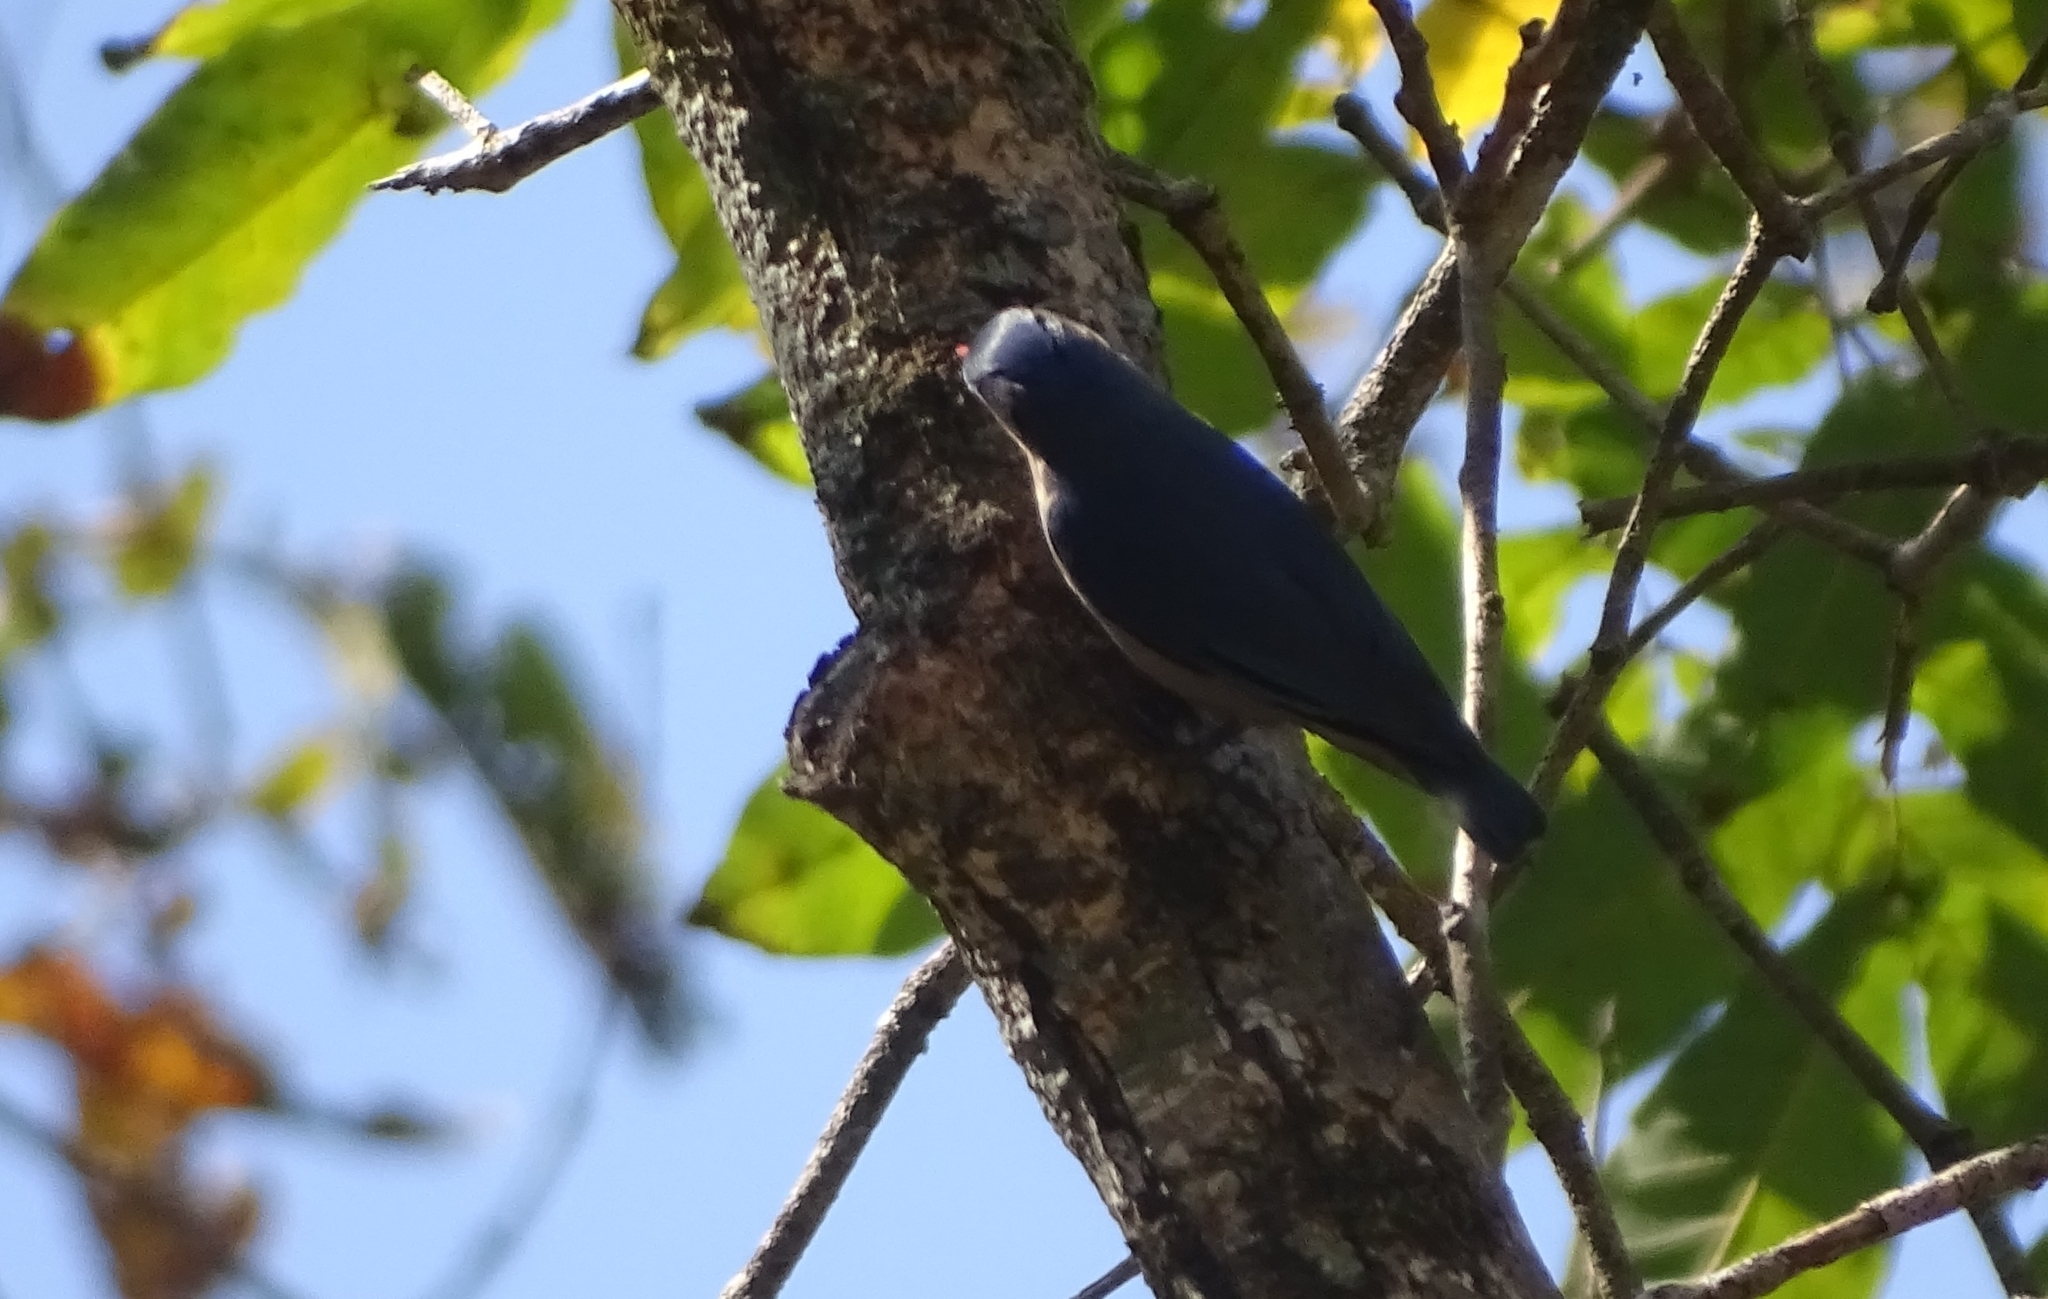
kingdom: Animalia
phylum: Chordata
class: Aves
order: Passeriformes
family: Sittidae
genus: Sitta
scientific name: Sitta frontalis
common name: Velvet-fronted nuthatch
